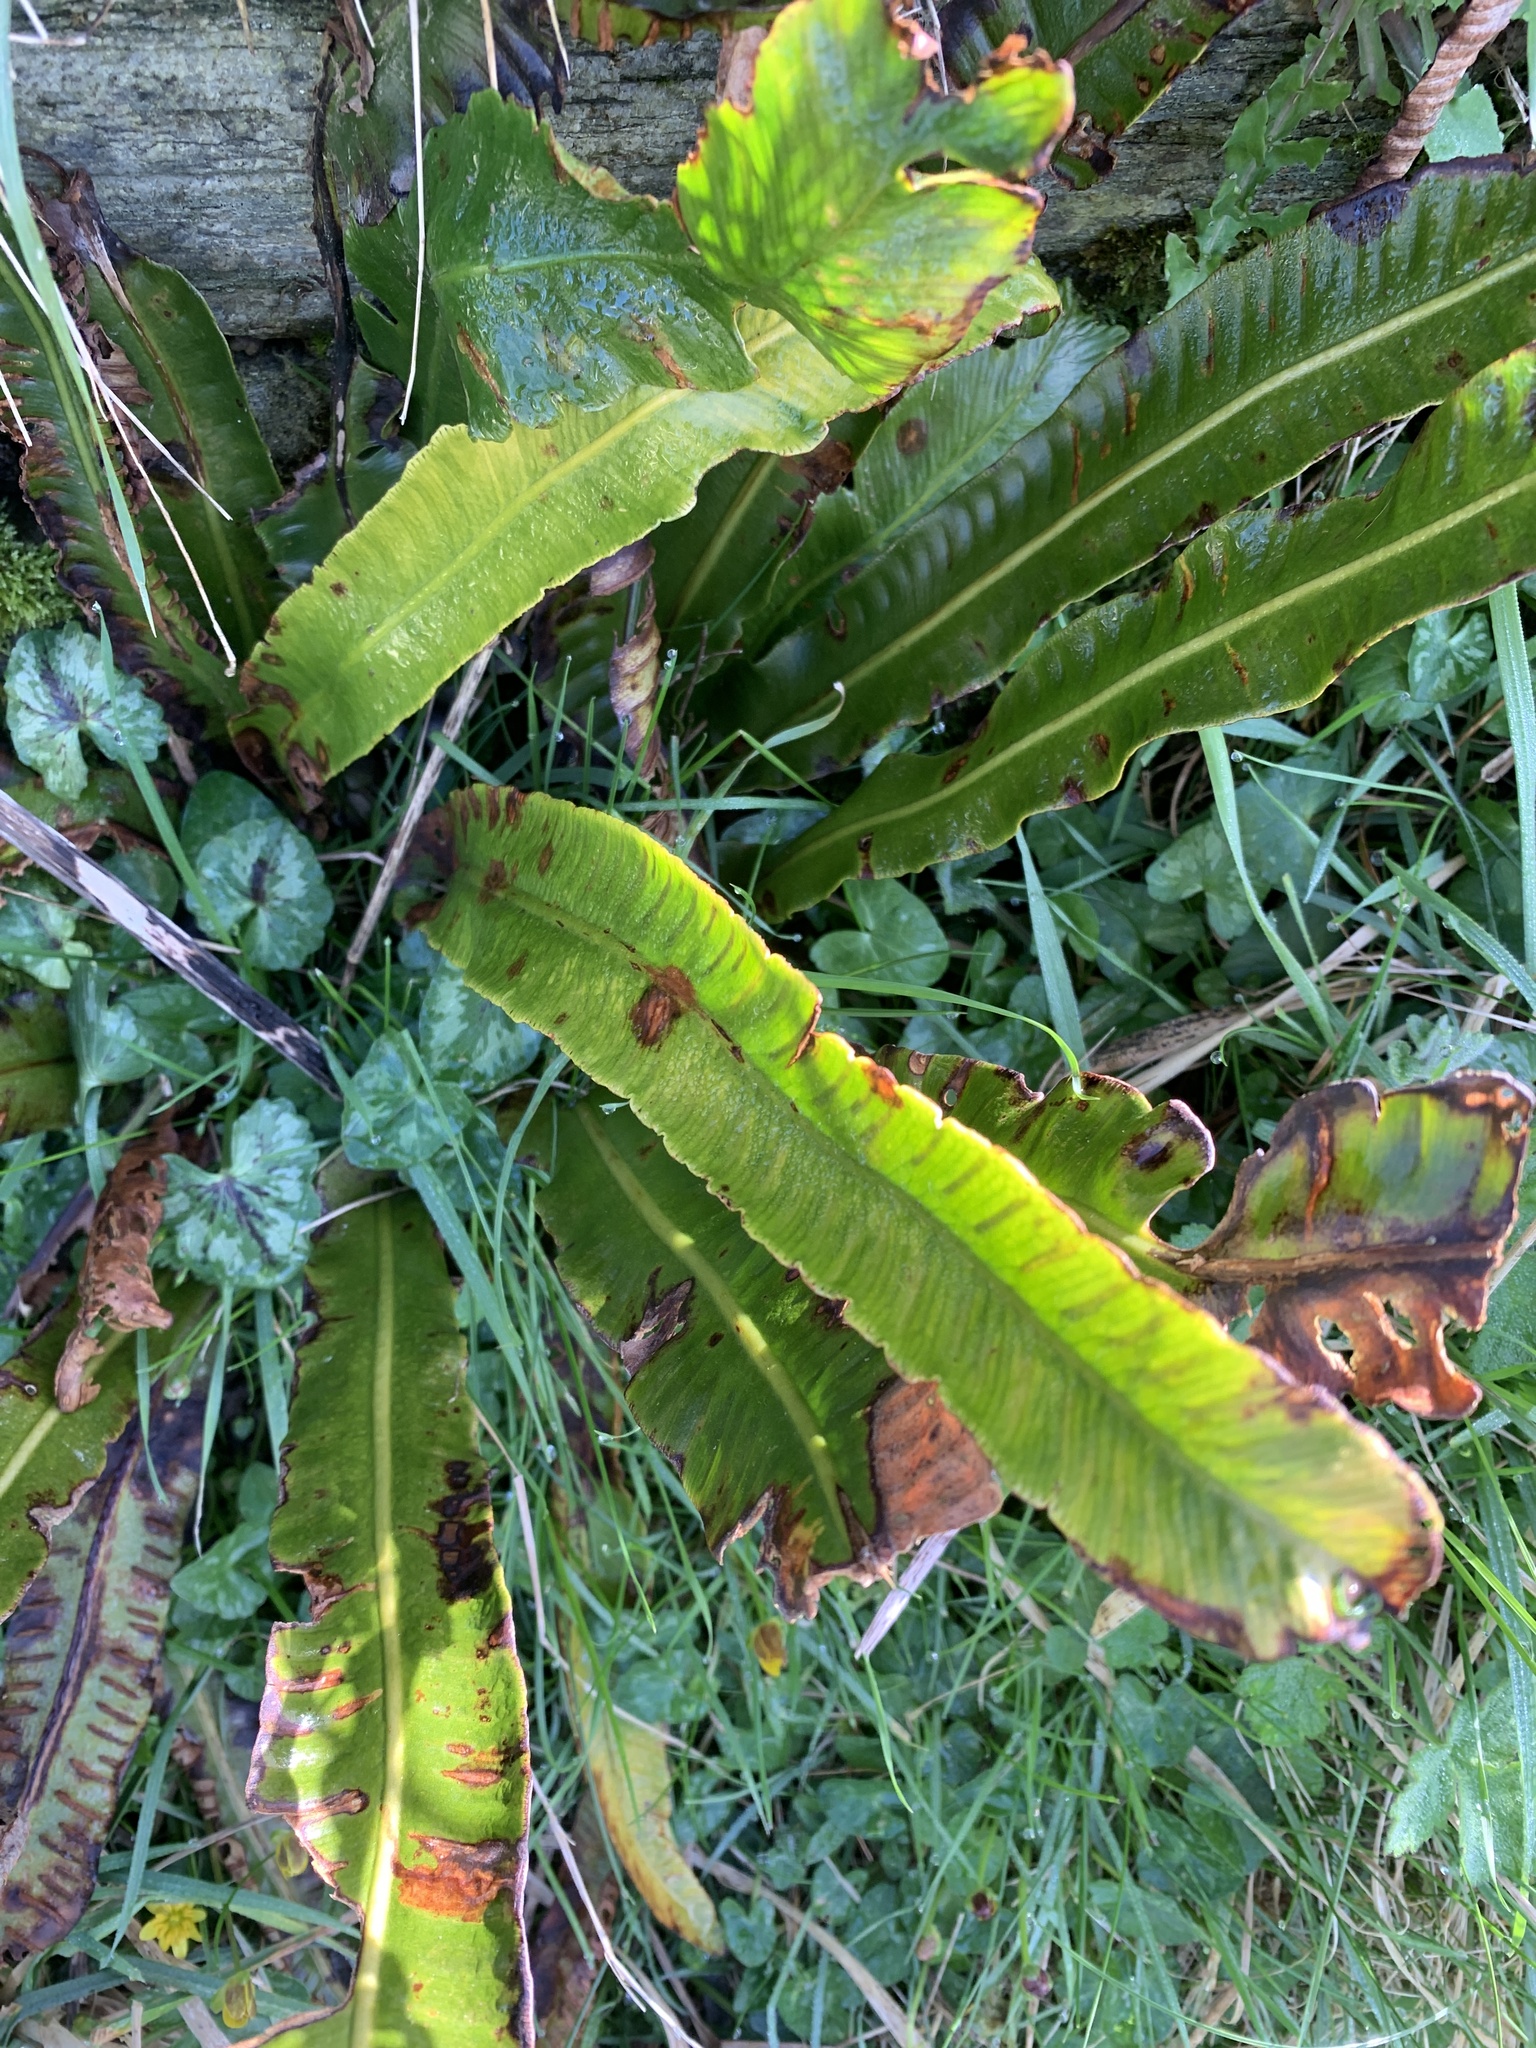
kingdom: Plantae
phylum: Tracheophyta
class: Polypodiopsida
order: Polypodiales
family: Aspleniaceae
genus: Asplenium
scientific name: Asplenium scolopendrium
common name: Hart's-tongue fern
